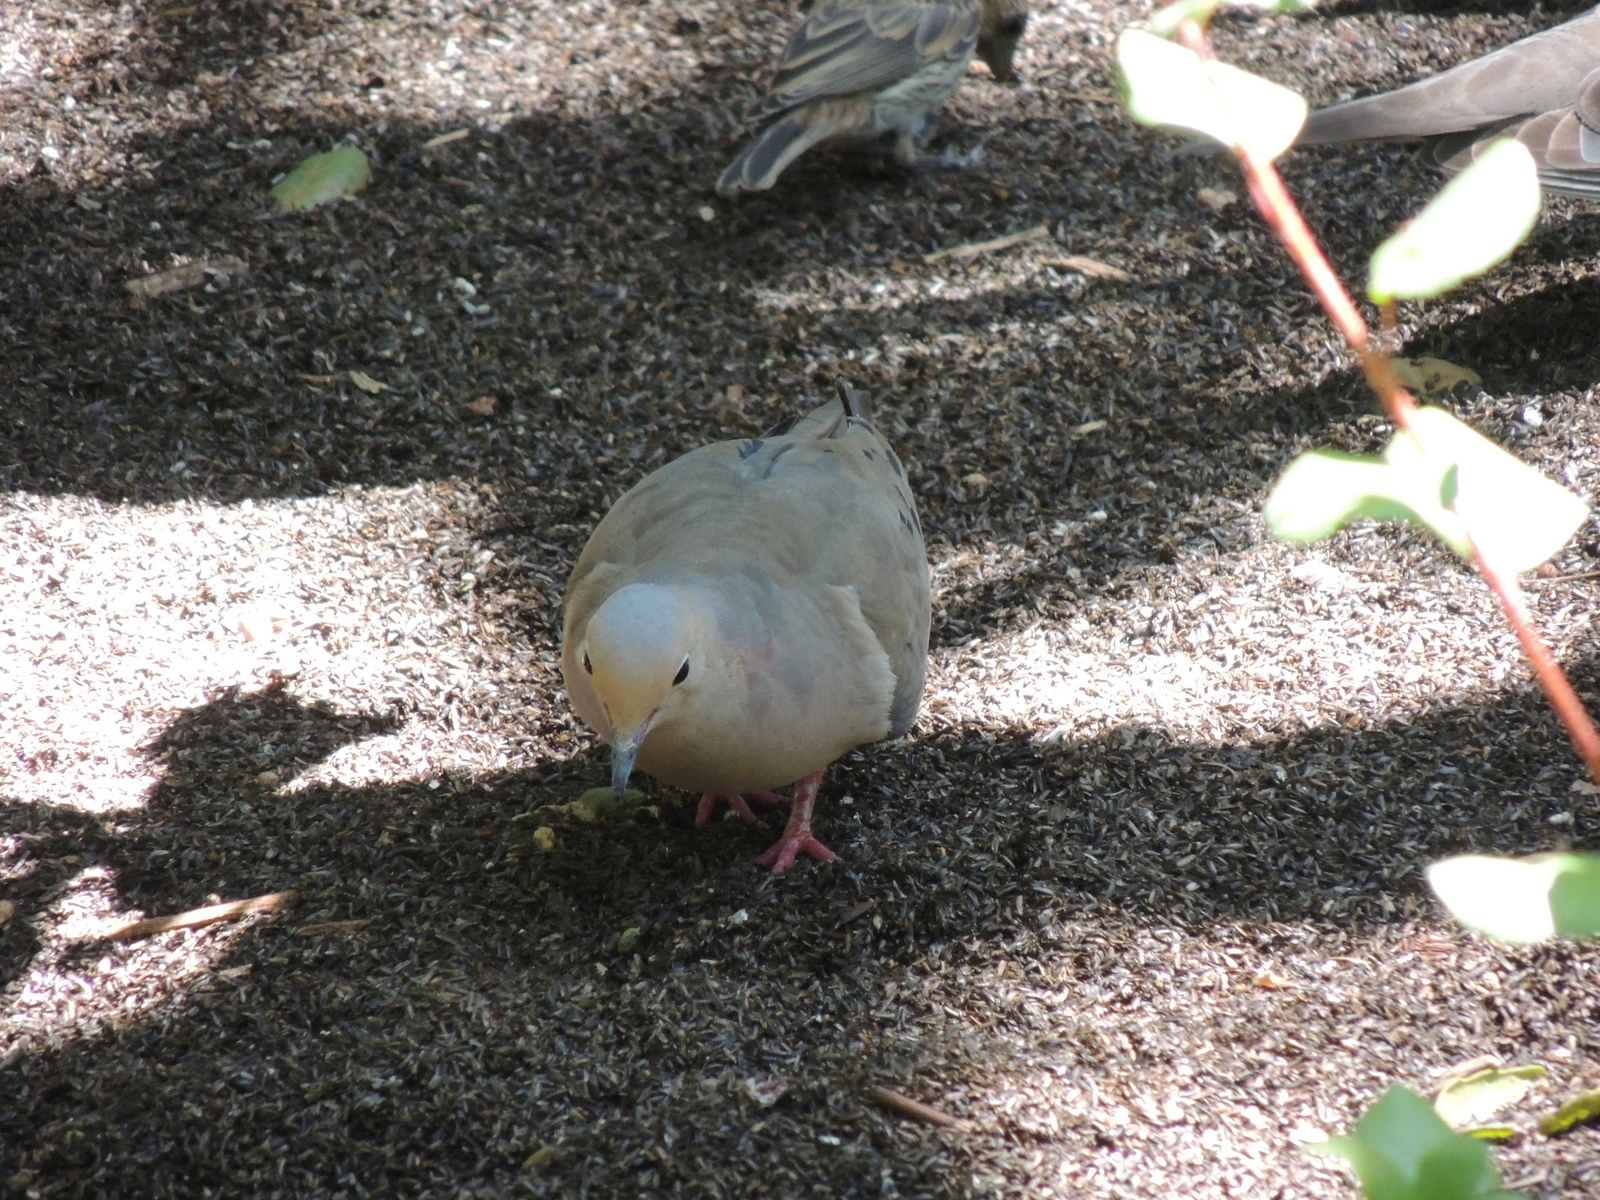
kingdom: Animalia
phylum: Chordata
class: Aves
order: Columbiformes
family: Columbidae
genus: Zenaida
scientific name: Zenaida macroura
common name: Mourning dove
